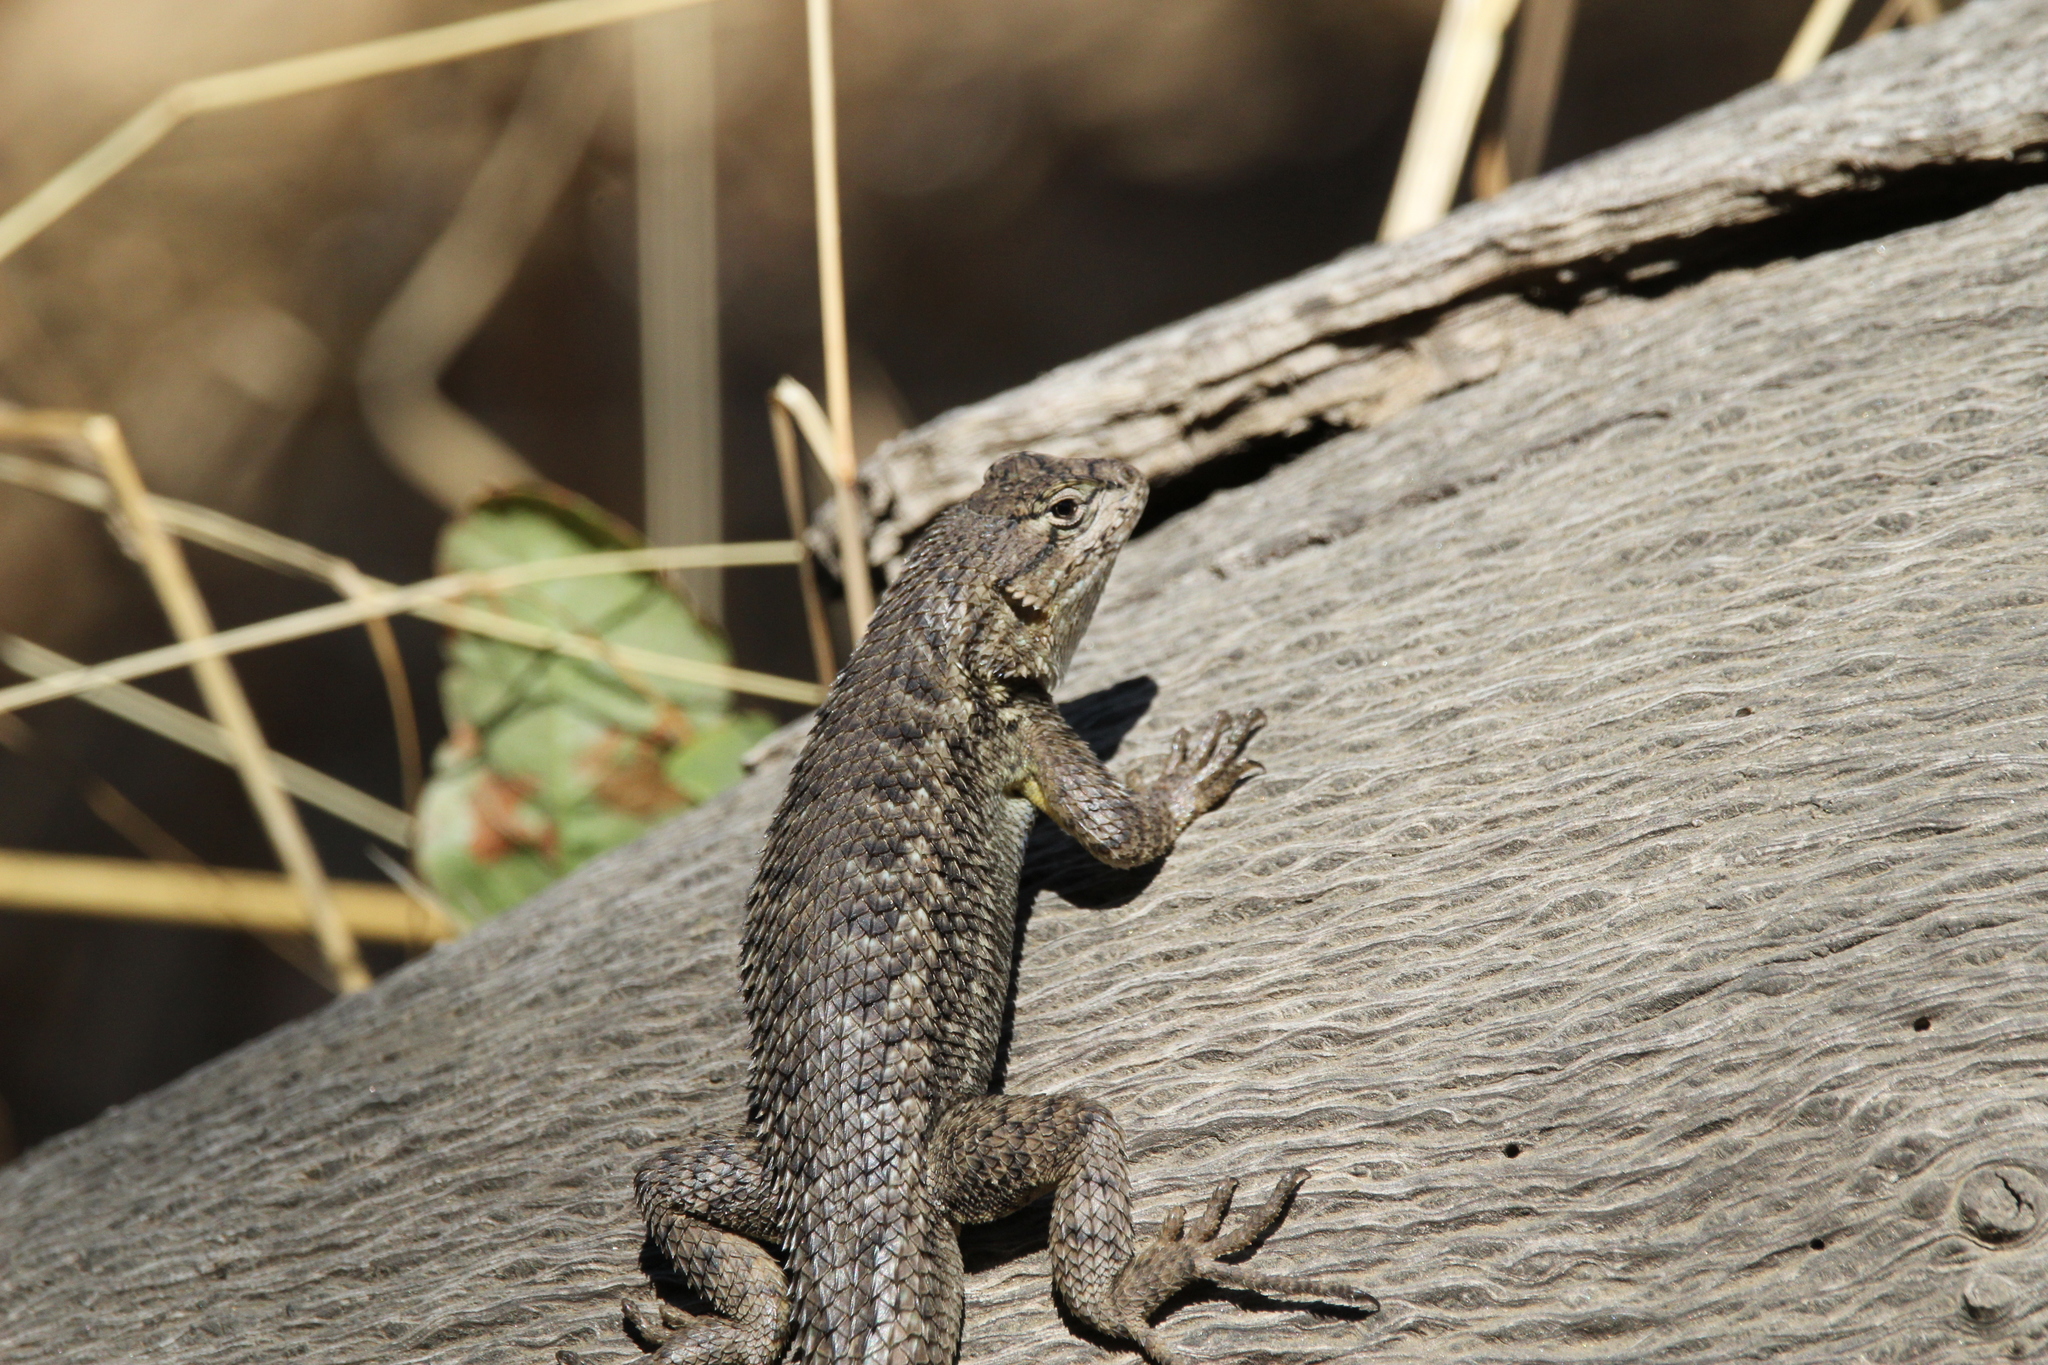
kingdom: Animalia
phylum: Chordata
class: Squamata
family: Phrynosomatidae
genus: Sceloporus
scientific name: Sceloporus occidentalis
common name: Western fence lizard
